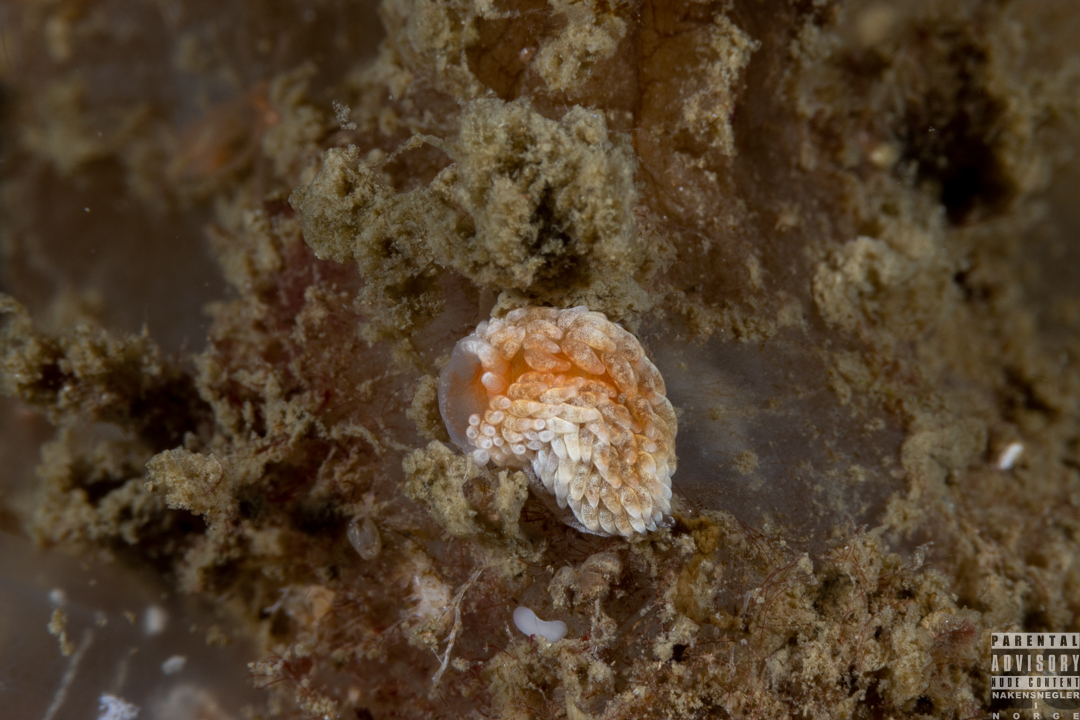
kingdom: Animalia
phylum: Mollusca
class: Gastropoda
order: Nudibranchia
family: Aeolidiidae
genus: Aeolidiella
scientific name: Aeolidiella glauca
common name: Orange-brown aeolid
